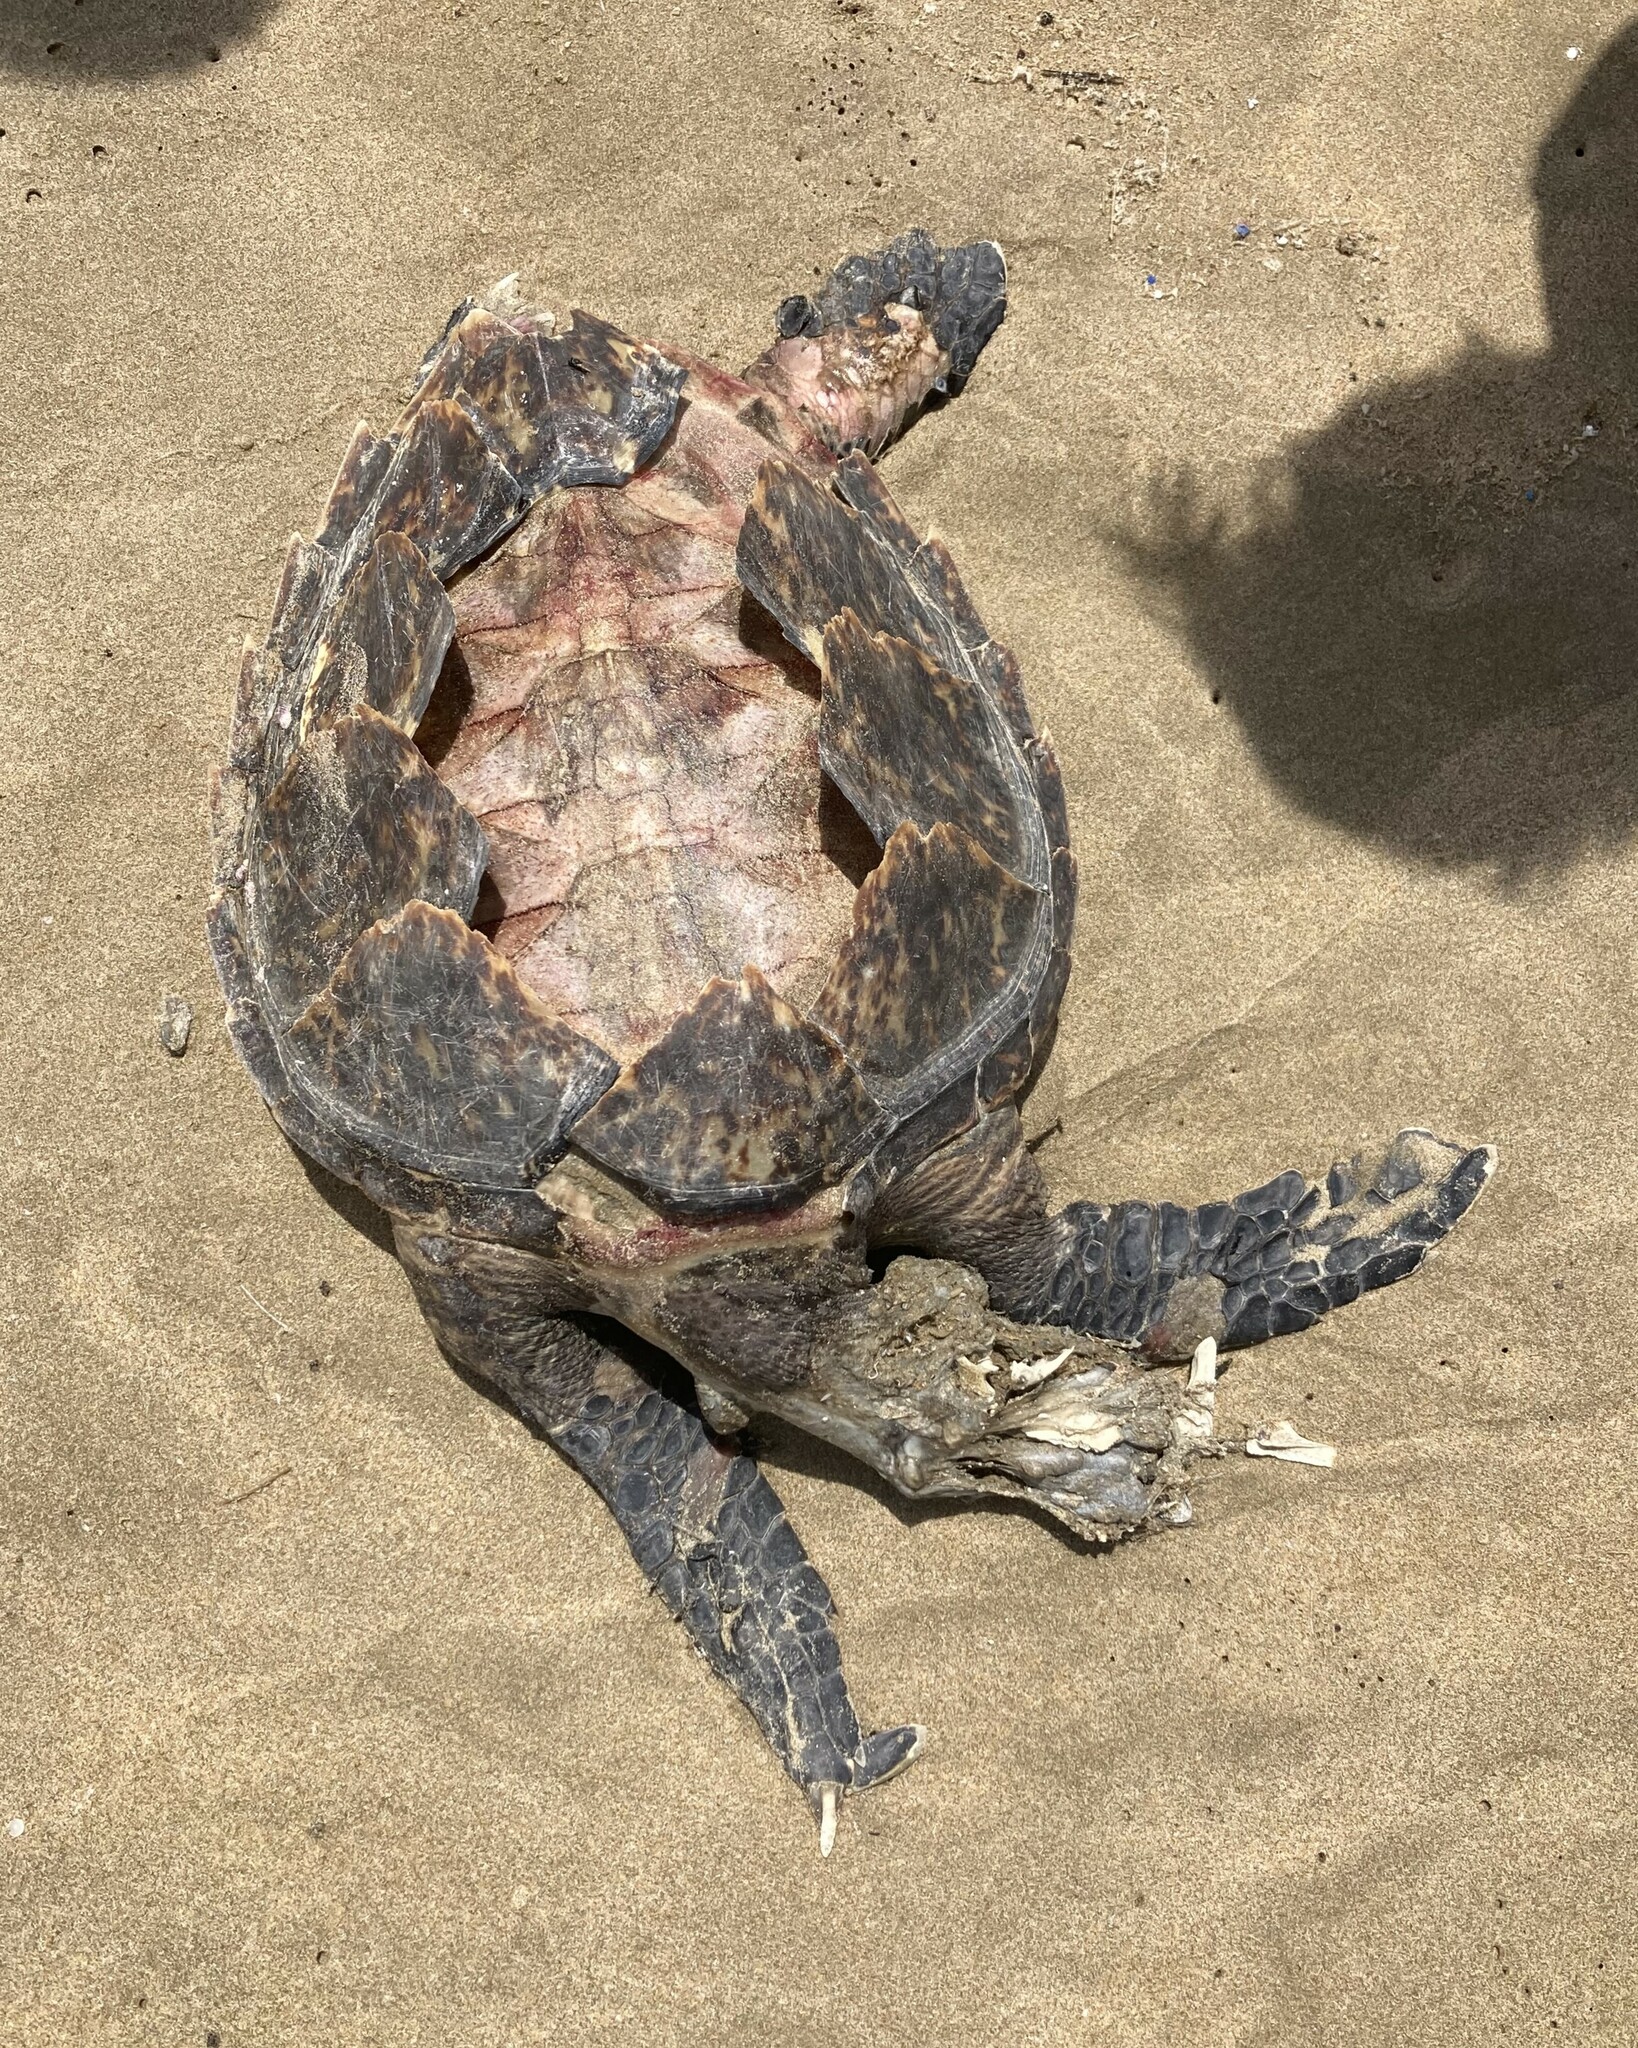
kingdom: Animalia
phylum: Chordata
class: Testudines
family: Cheloniidae
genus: Eretmochelys
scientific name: Eretmochelys imbricata
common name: Hawksbill turtle
